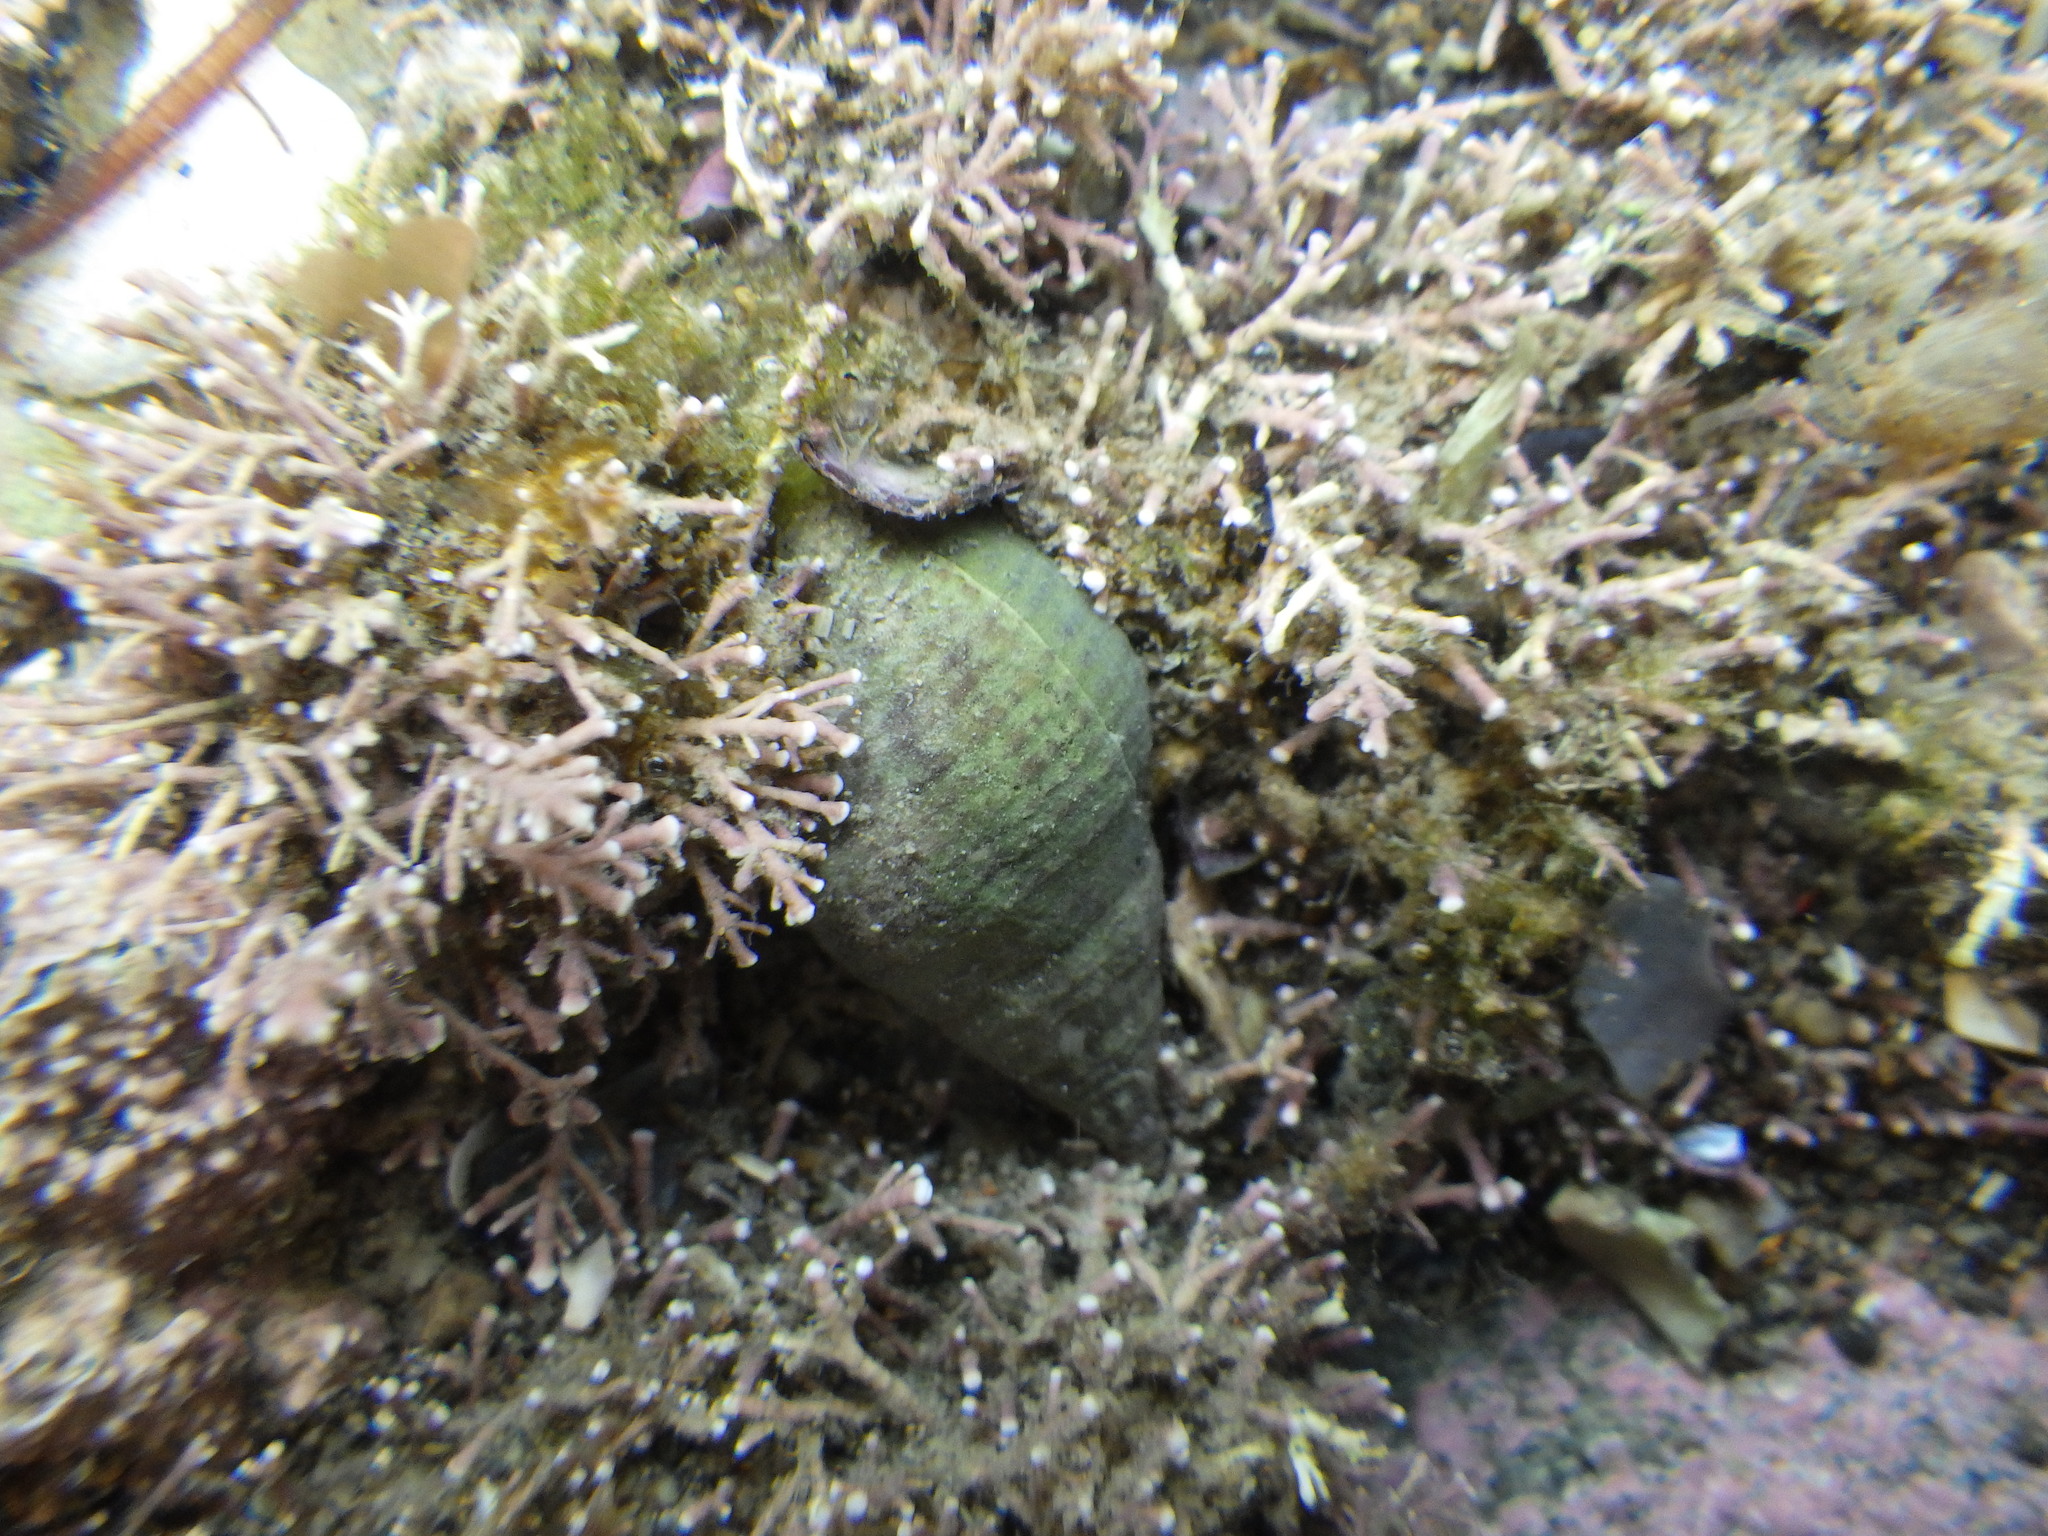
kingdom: Animalia
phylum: Mollusca
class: Gastropoda
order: Neogastropoda
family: Tudiclidae
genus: Buccinulum
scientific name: Buccinulum vittatum
